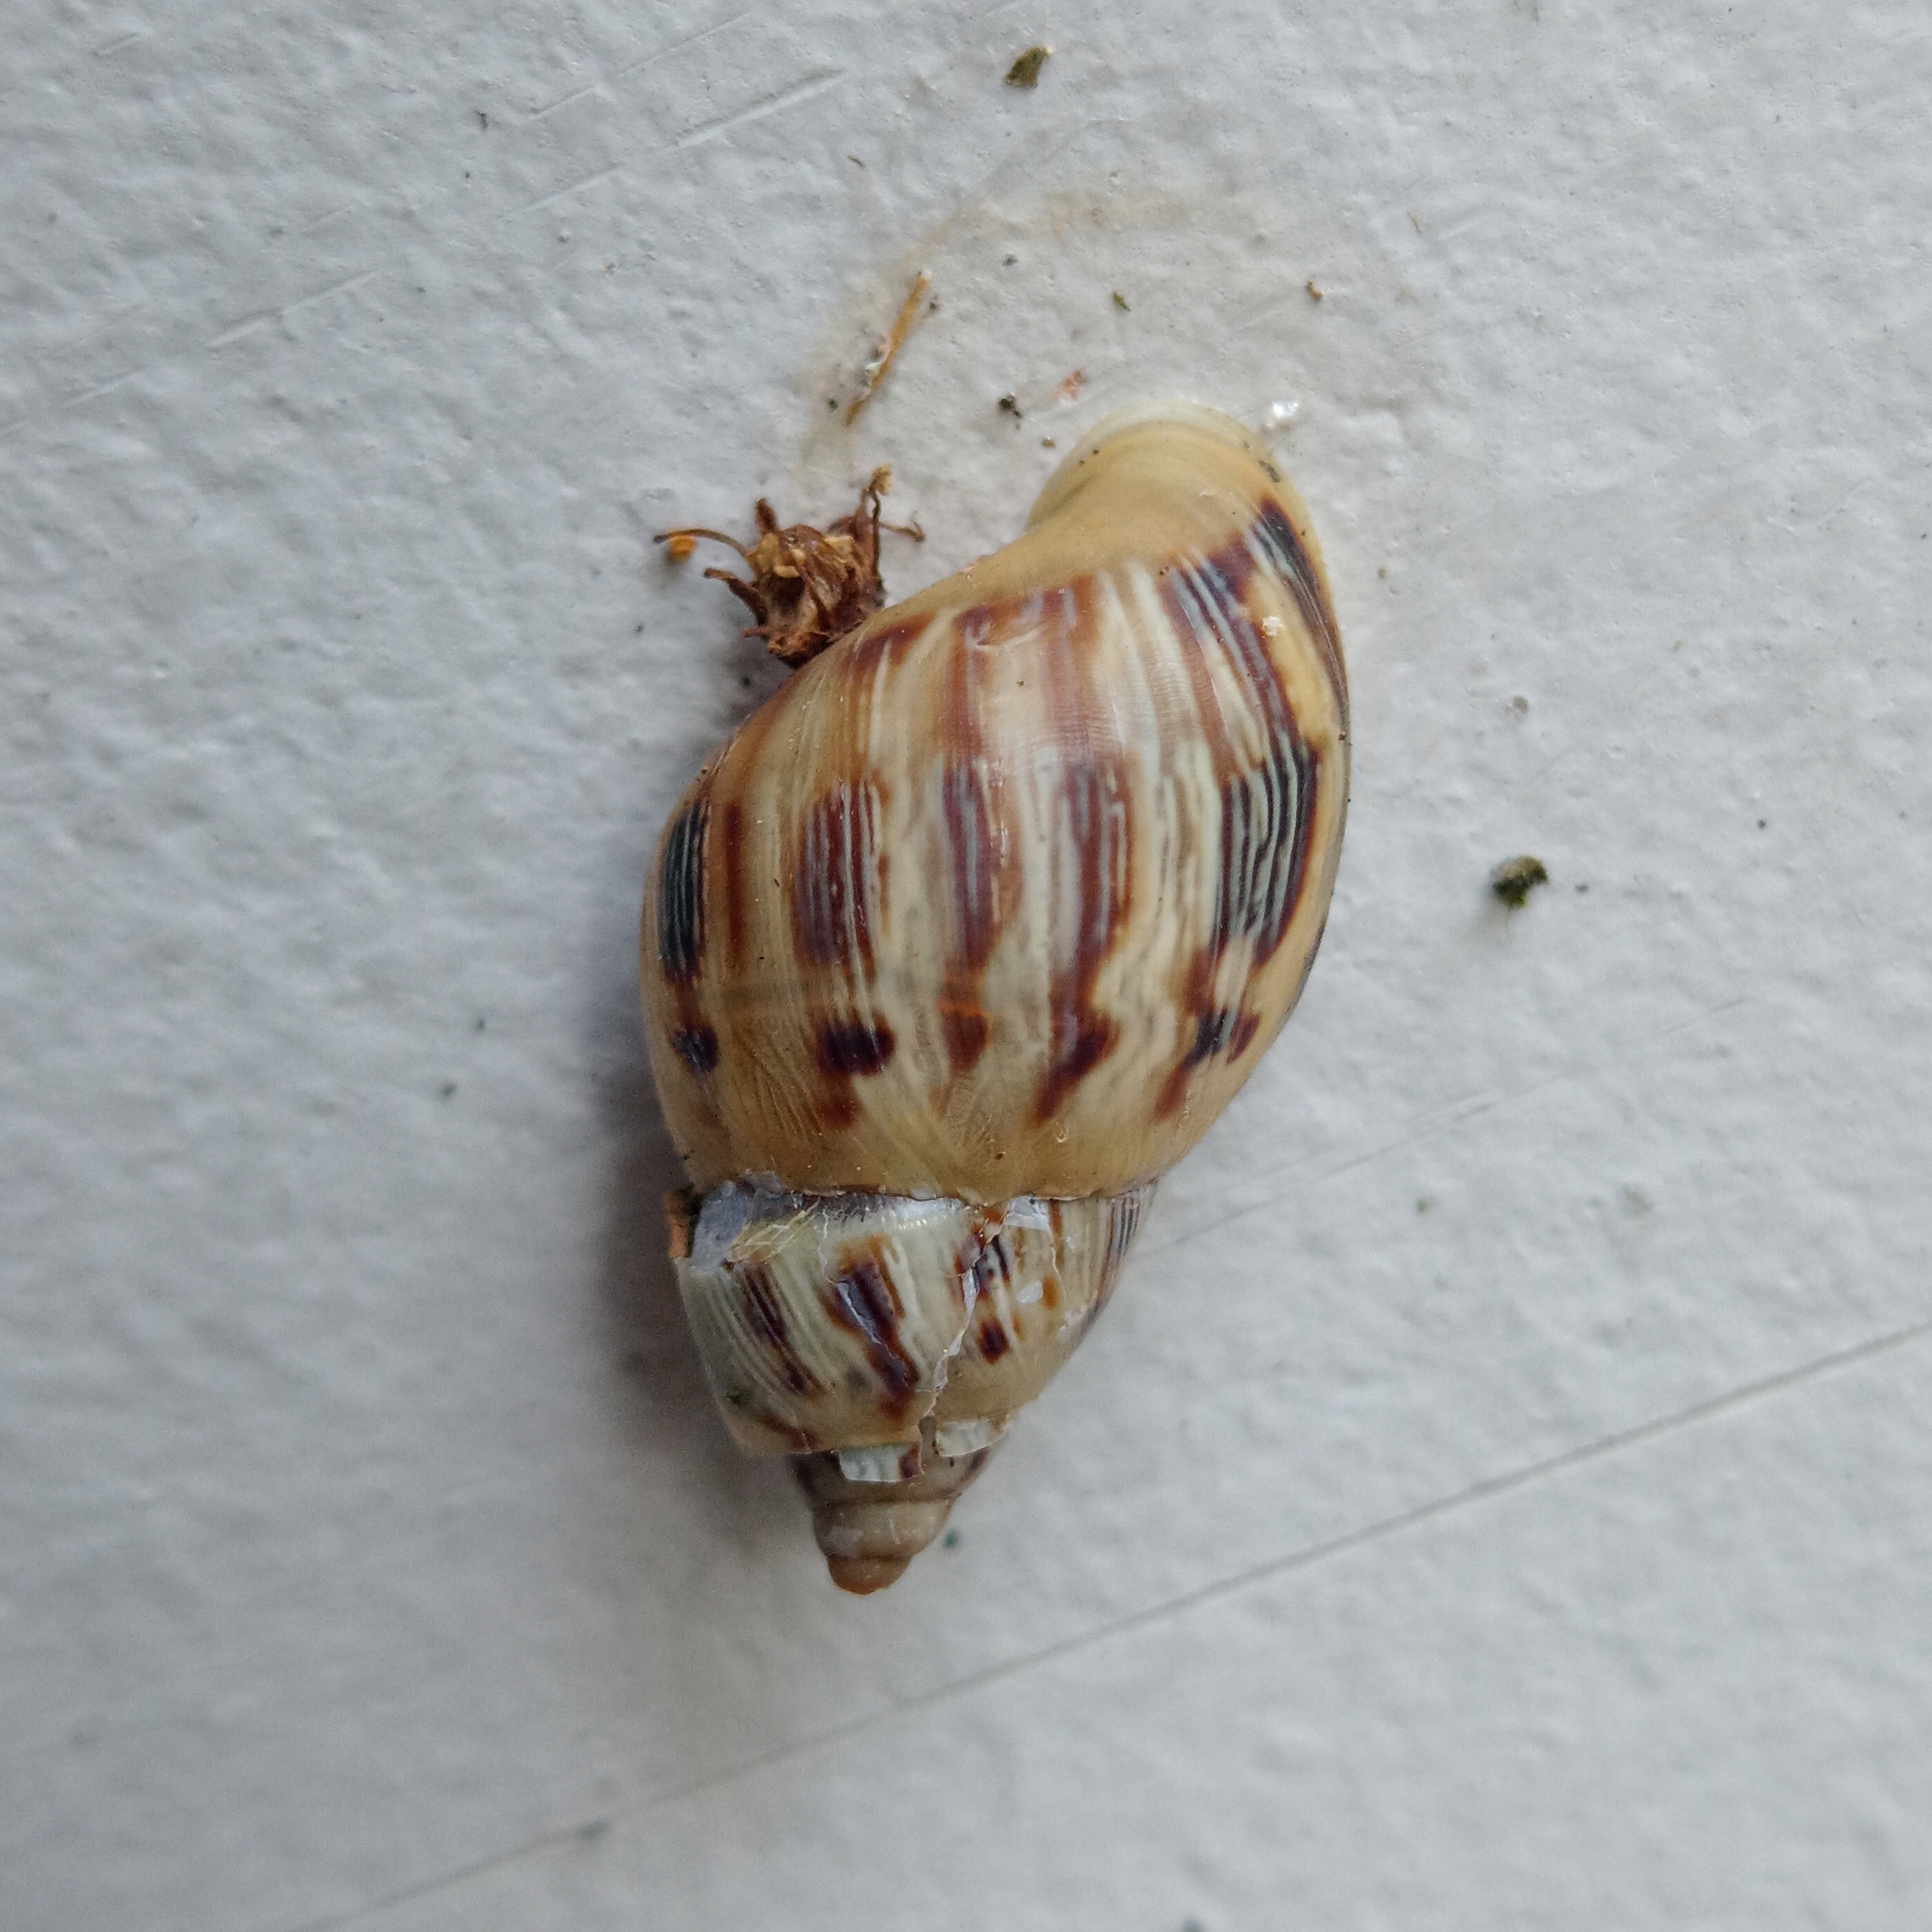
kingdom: Animalia
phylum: Mollusca
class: Gastropoda
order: Stylommatophora
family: Bulimulidae
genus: Drymaeus
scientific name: Drymaeus papyraceus
